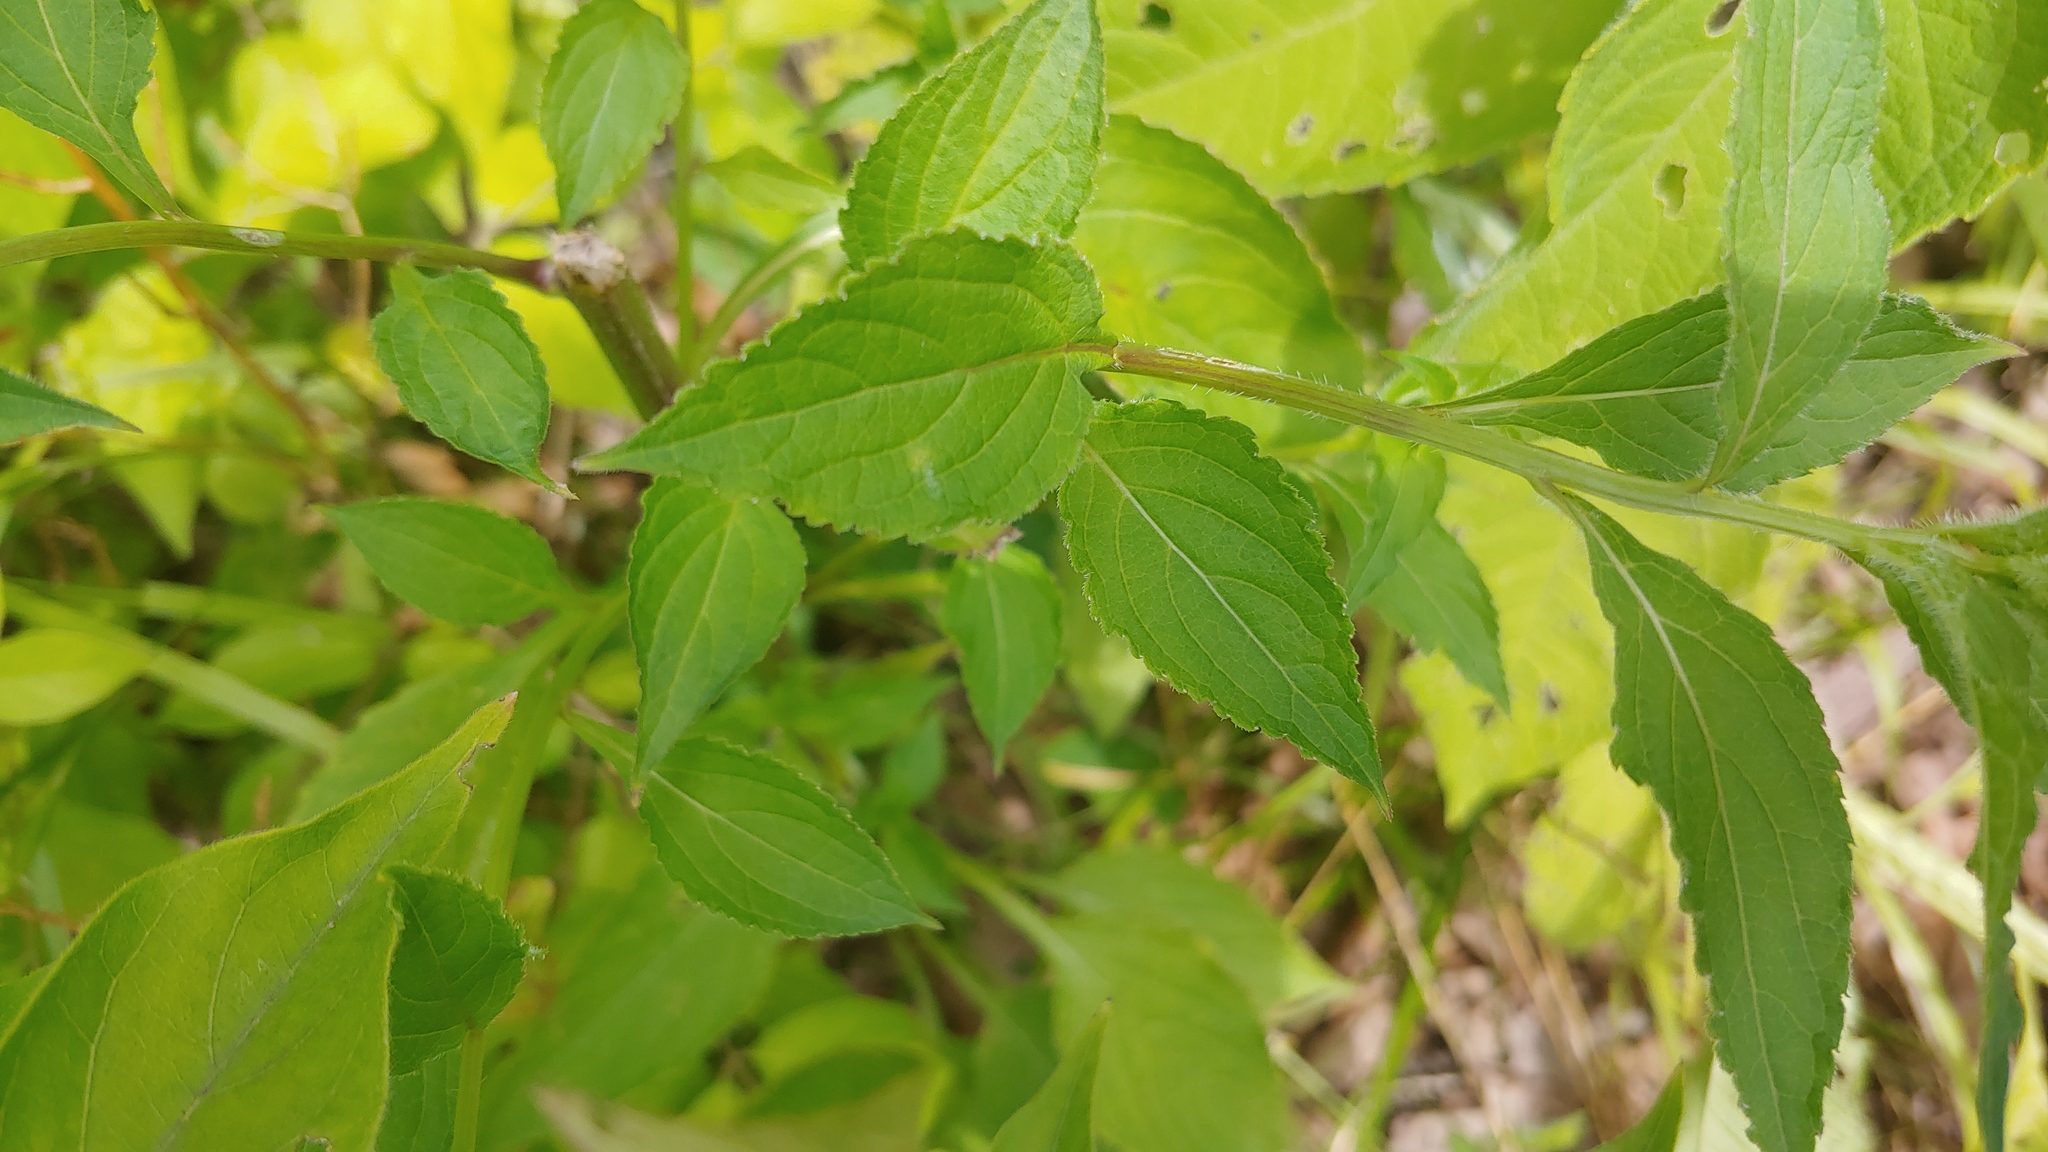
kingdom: Plantae
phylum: Tracheophyta
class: Magnoliopsida
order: Asterales
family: Campanulaceae
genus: Campanulastrum
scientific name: Campanulastrum americanum
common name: American bellflower
